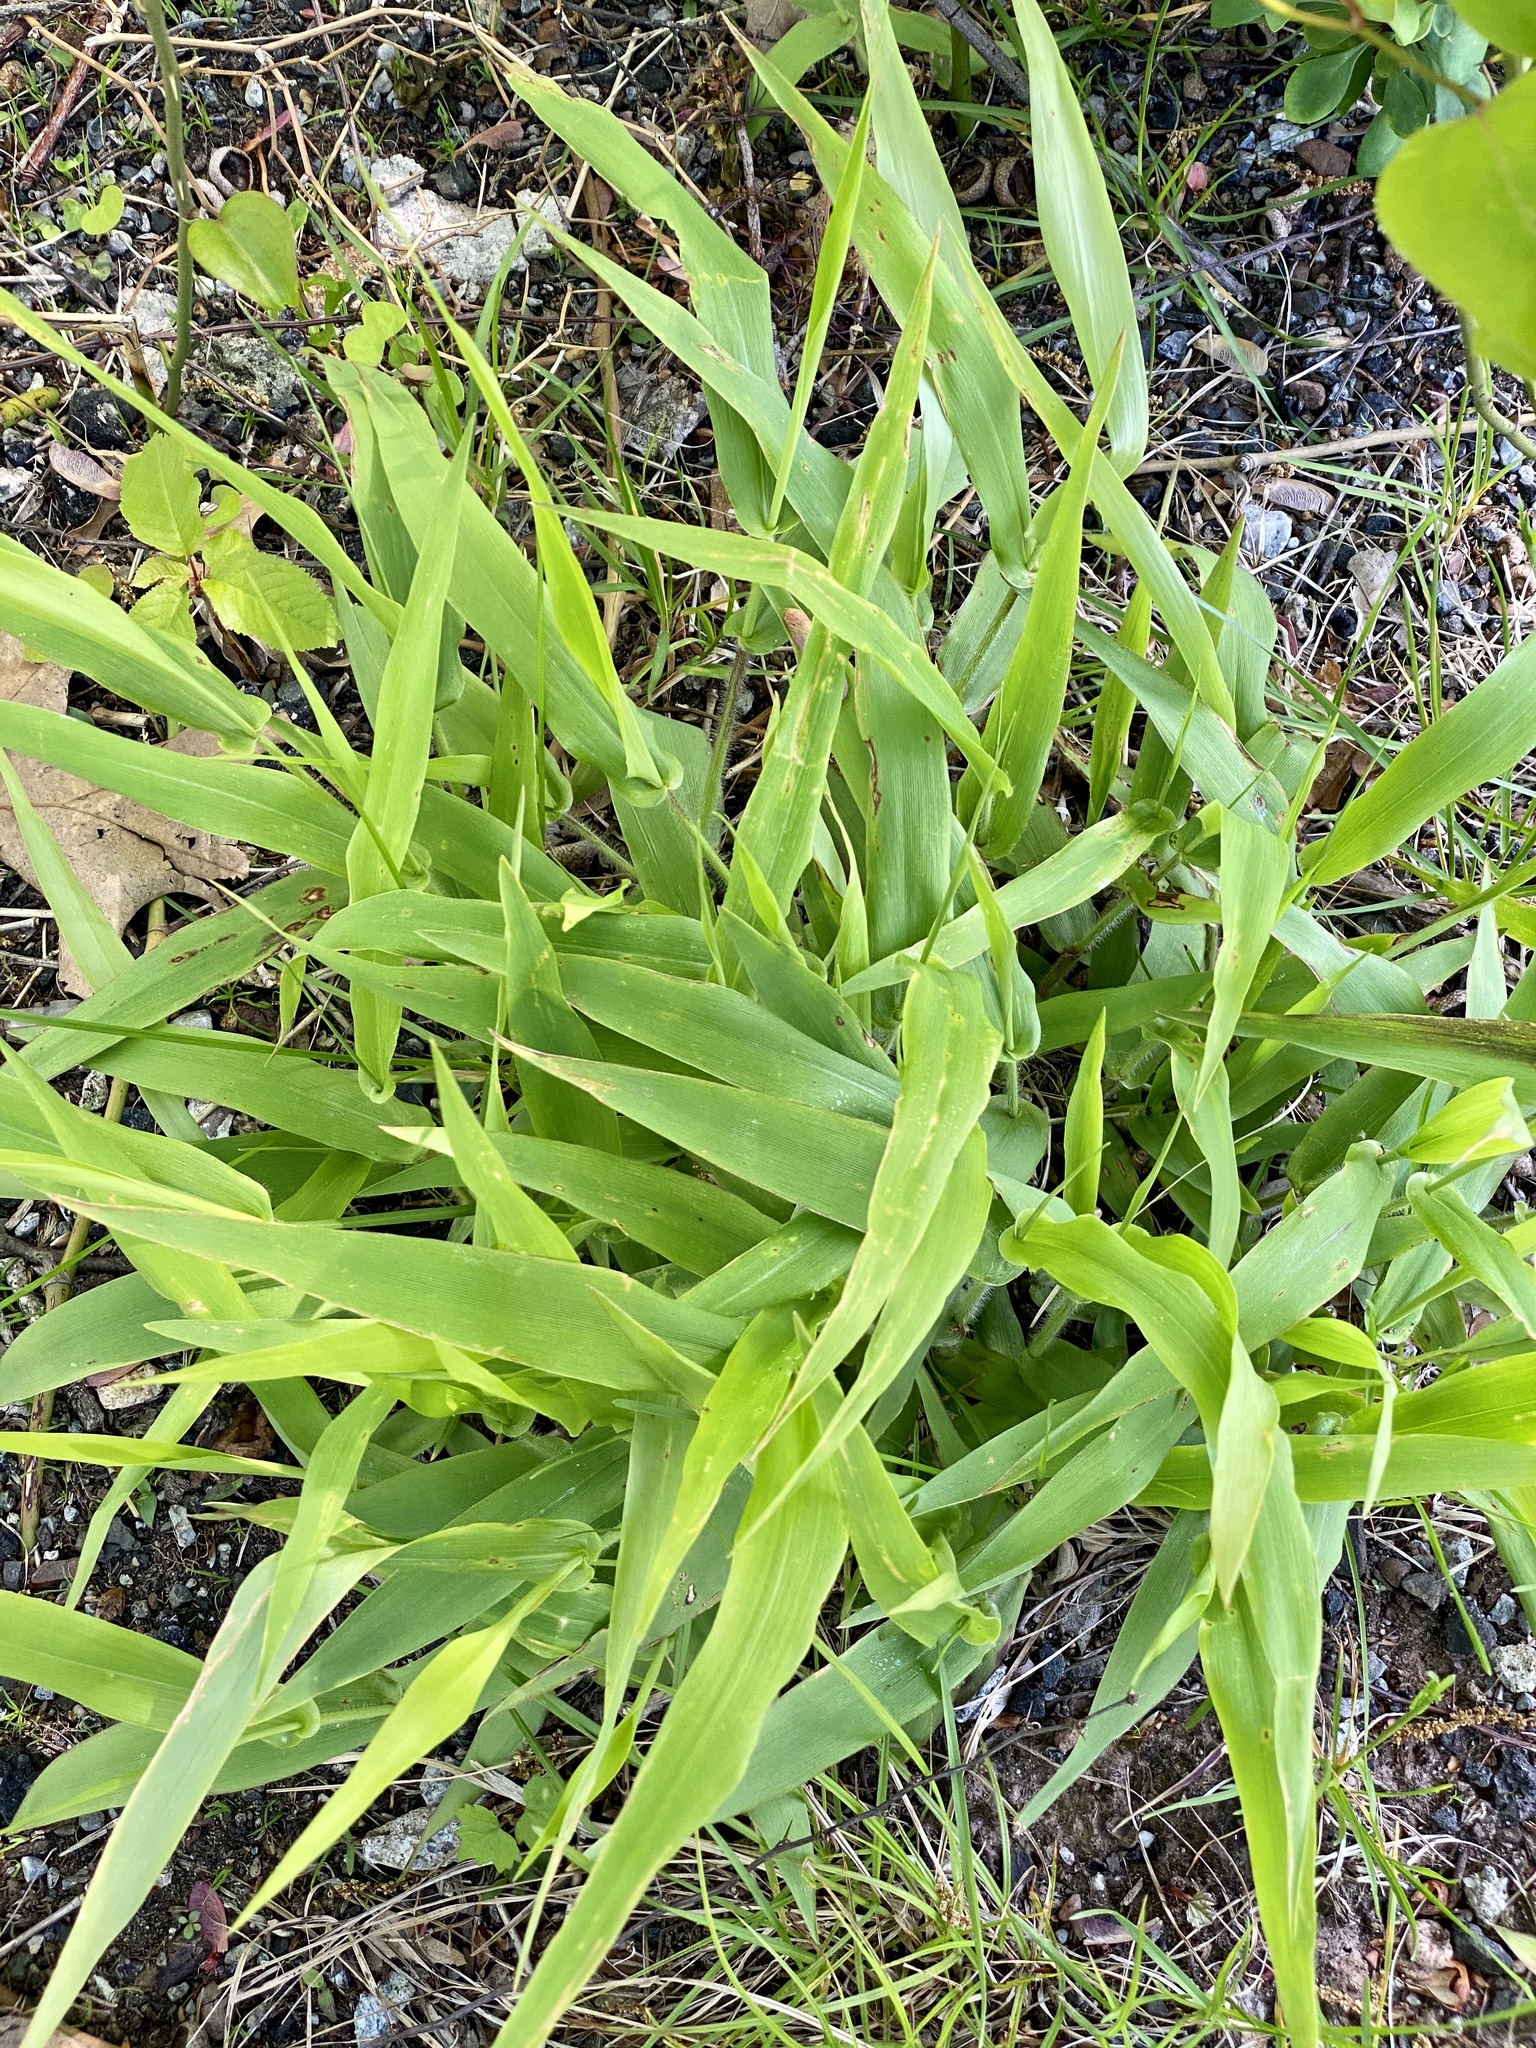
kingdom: Plantae
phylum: Tracheophyta
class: Liliopsida
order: Poales
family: Poaceae
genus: Dichanthelium
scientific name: Dichanthelium clandestinum
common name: Deer-tongue grass
